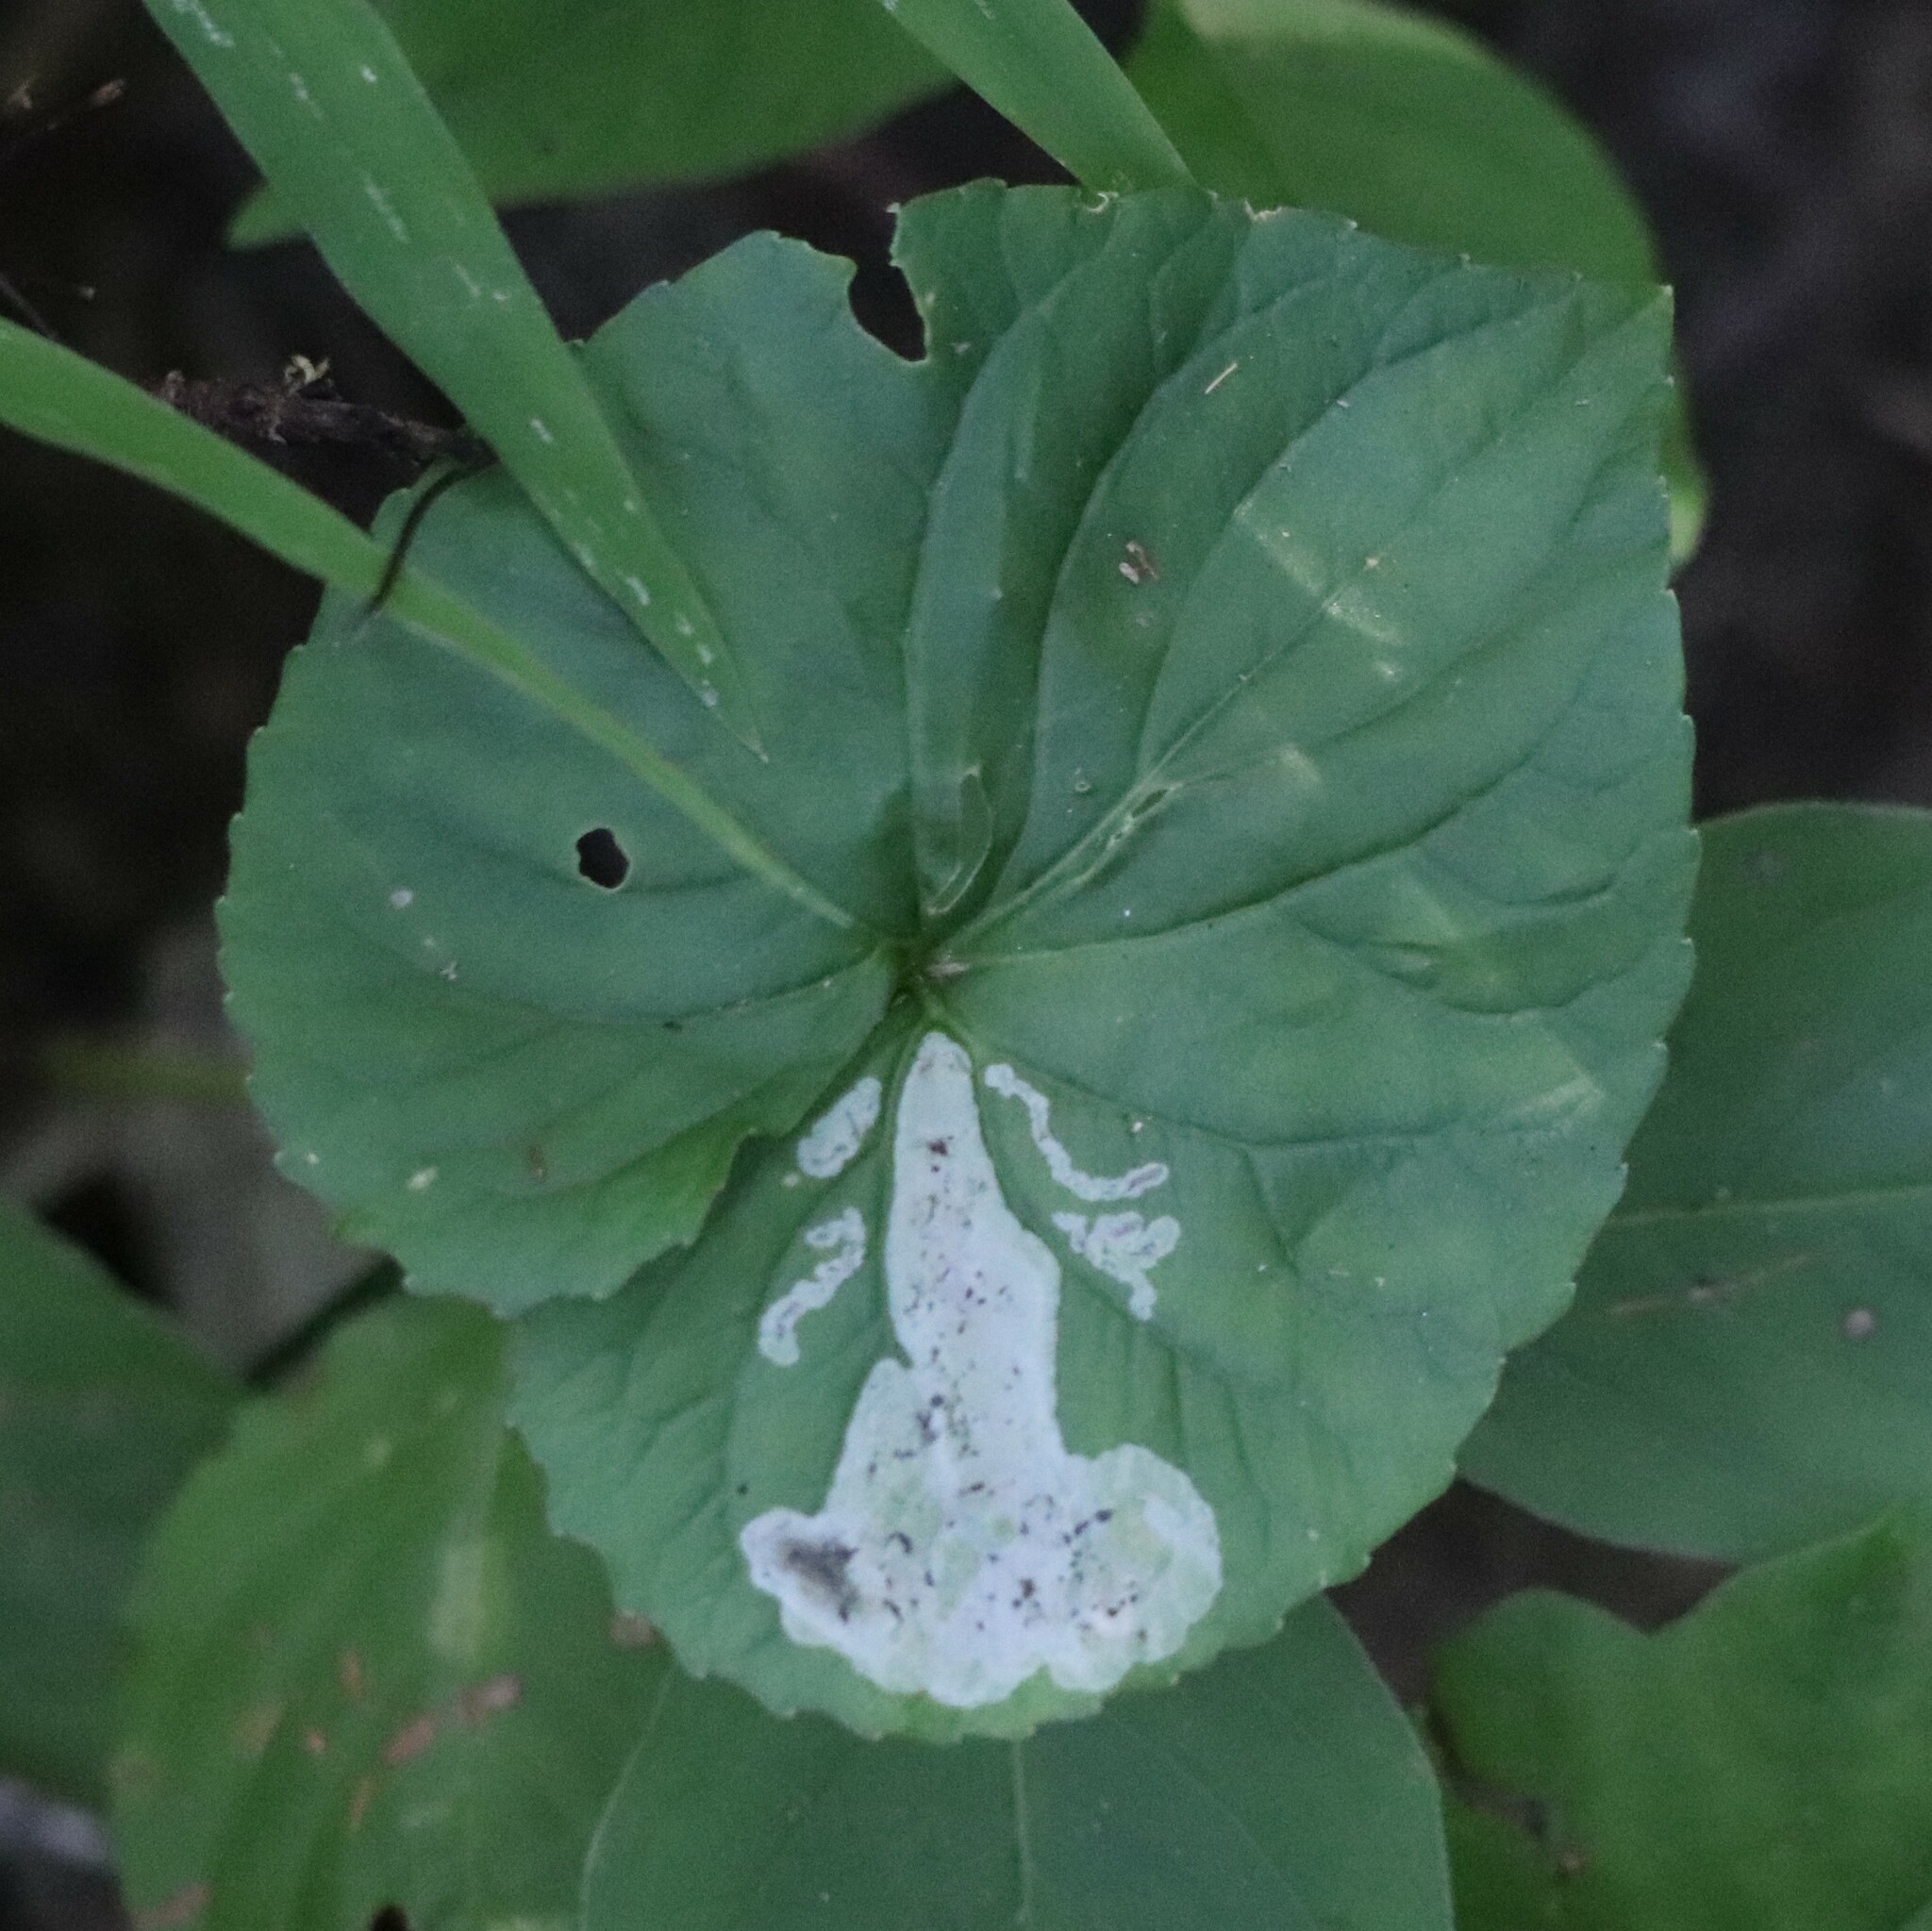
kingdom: Animalia
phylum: Arthropoda
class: Insecta
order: Diptera
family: Agromyzidae
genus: Liriomyza
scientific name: Liriomyza violivora
